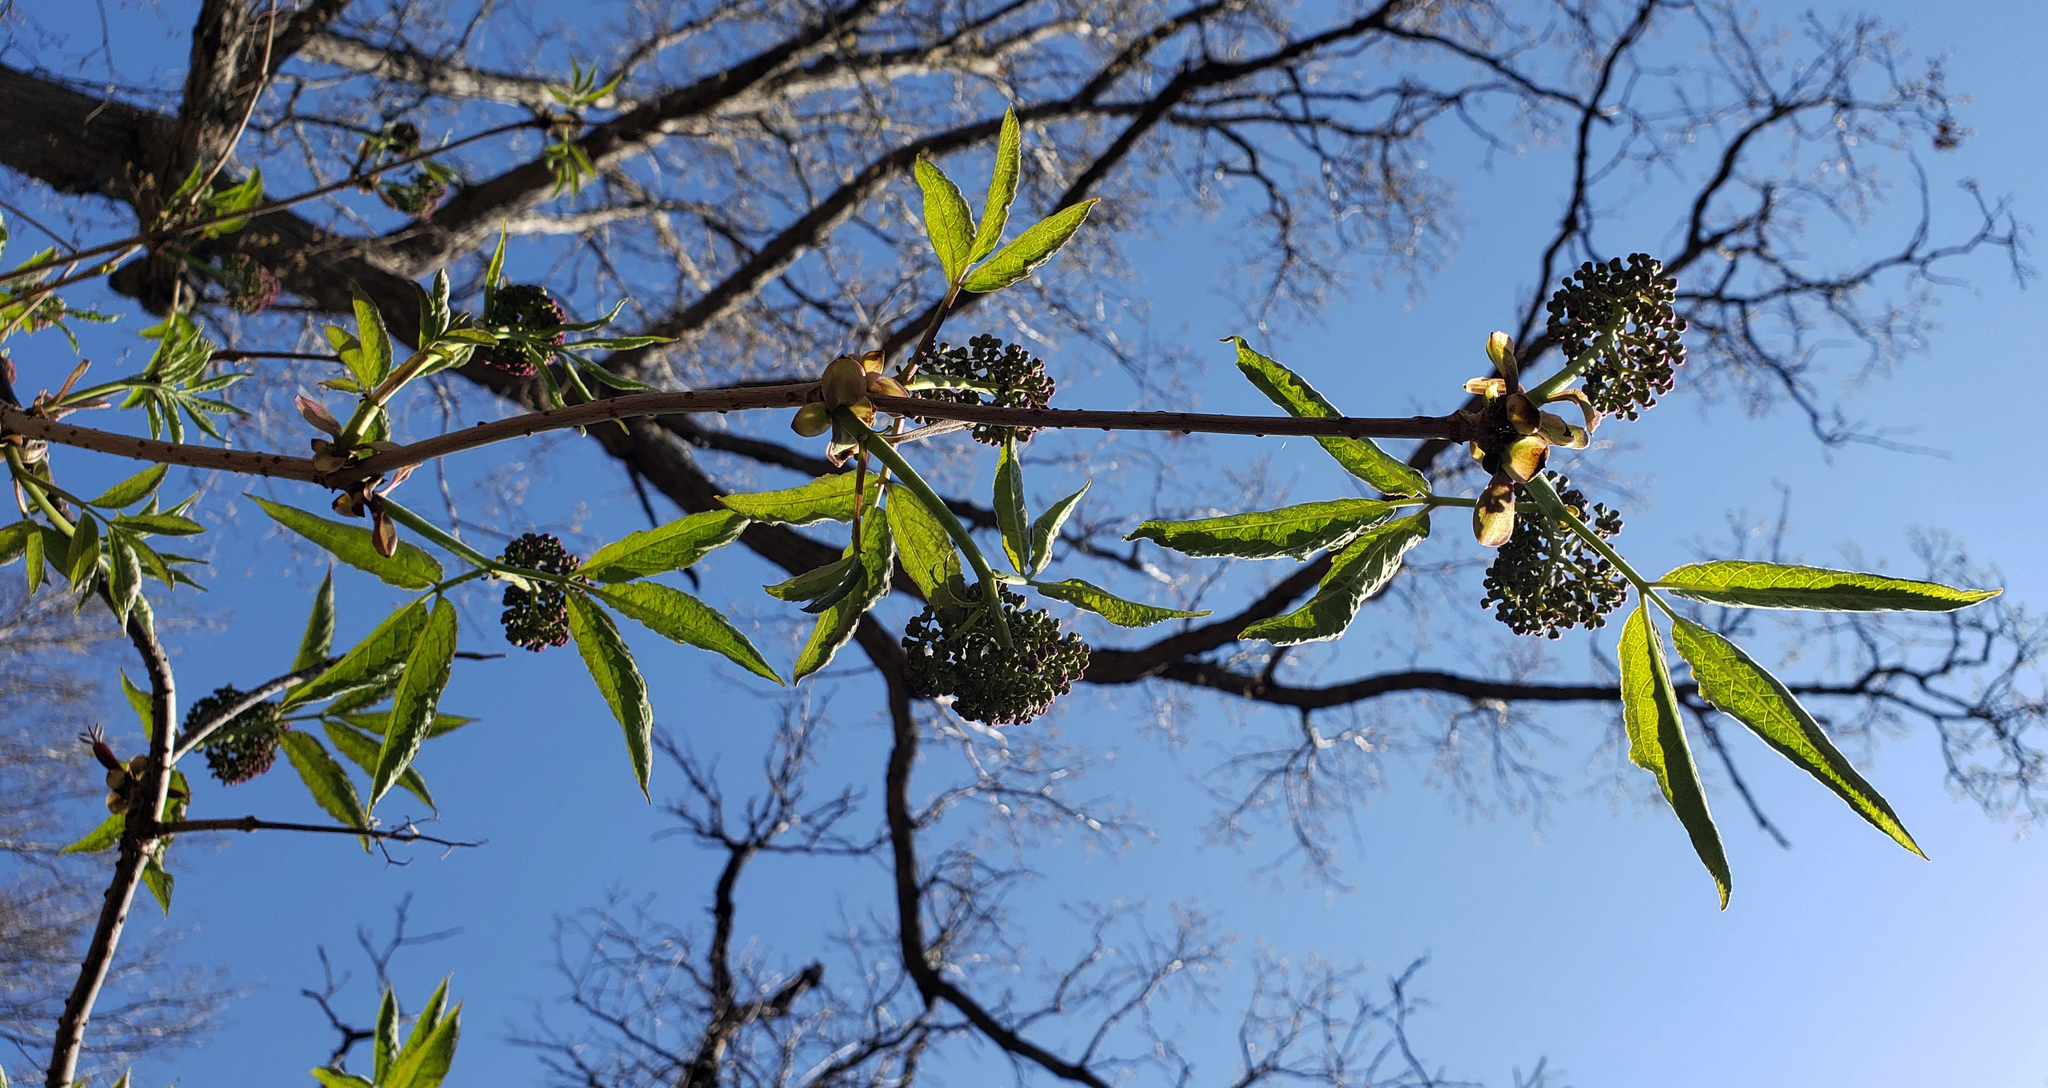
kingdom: Plantae
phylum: Tracheophyta
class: Magnoliopsida
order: Dipsacales
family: Viburnaceae
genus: Sambucus
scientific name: Sambucus racemosa
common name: Red-berried elder
